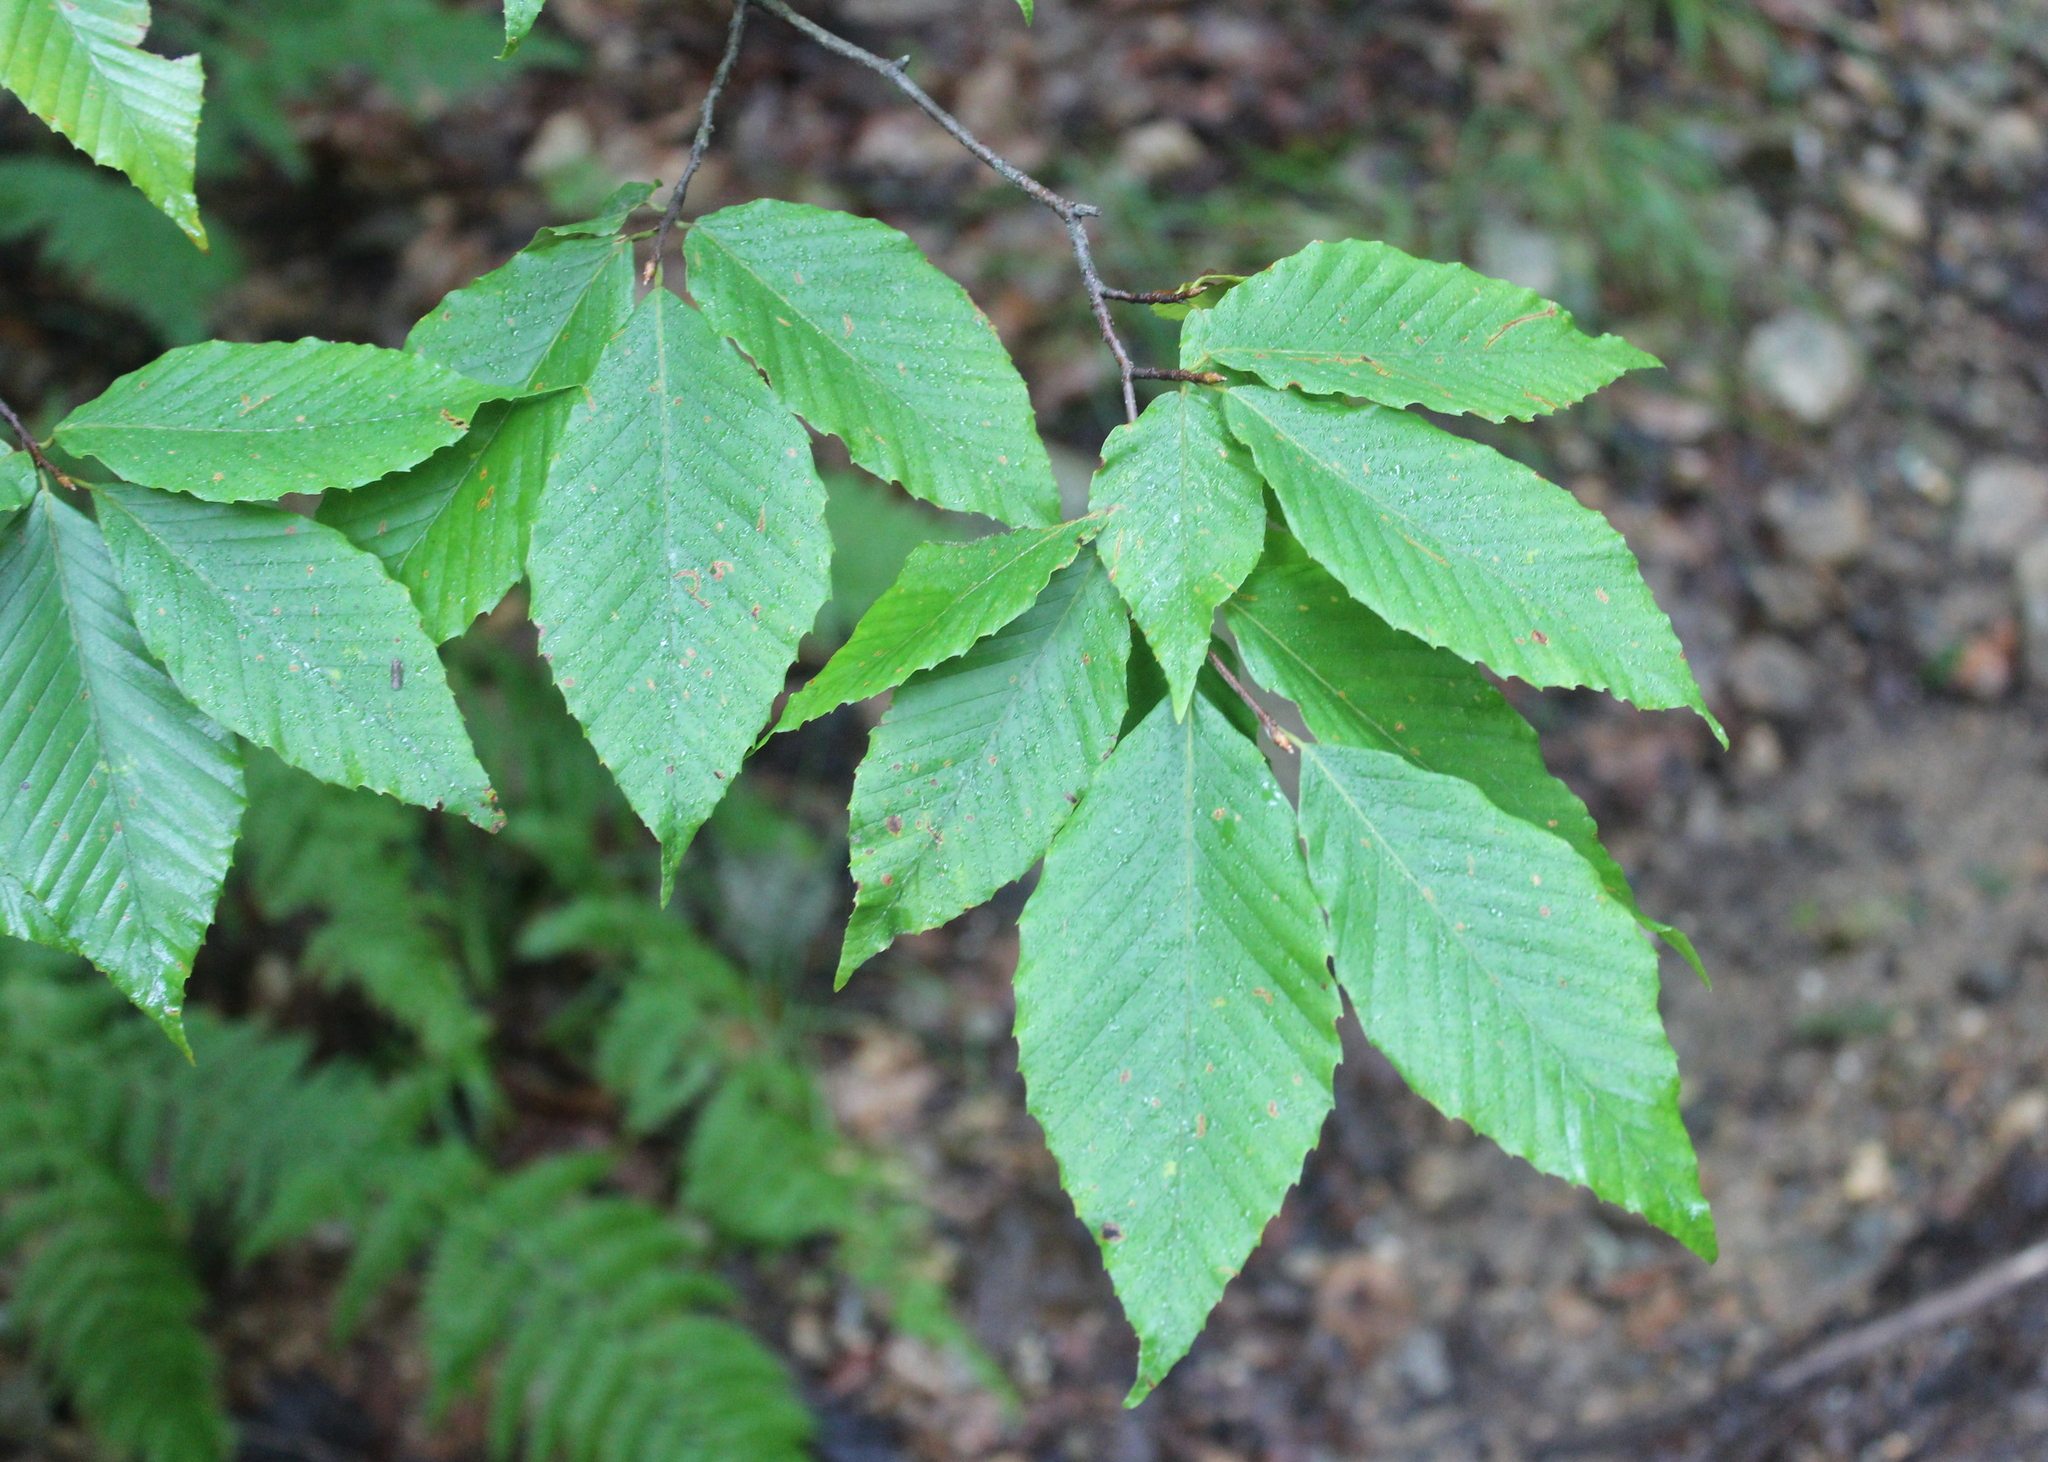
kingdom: Plantae
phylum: Tracheophyta
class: Magnoliopsida
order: Fagales
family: Fagaceae
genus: Fagus
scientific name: Fagus grandifolia
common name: American beech
